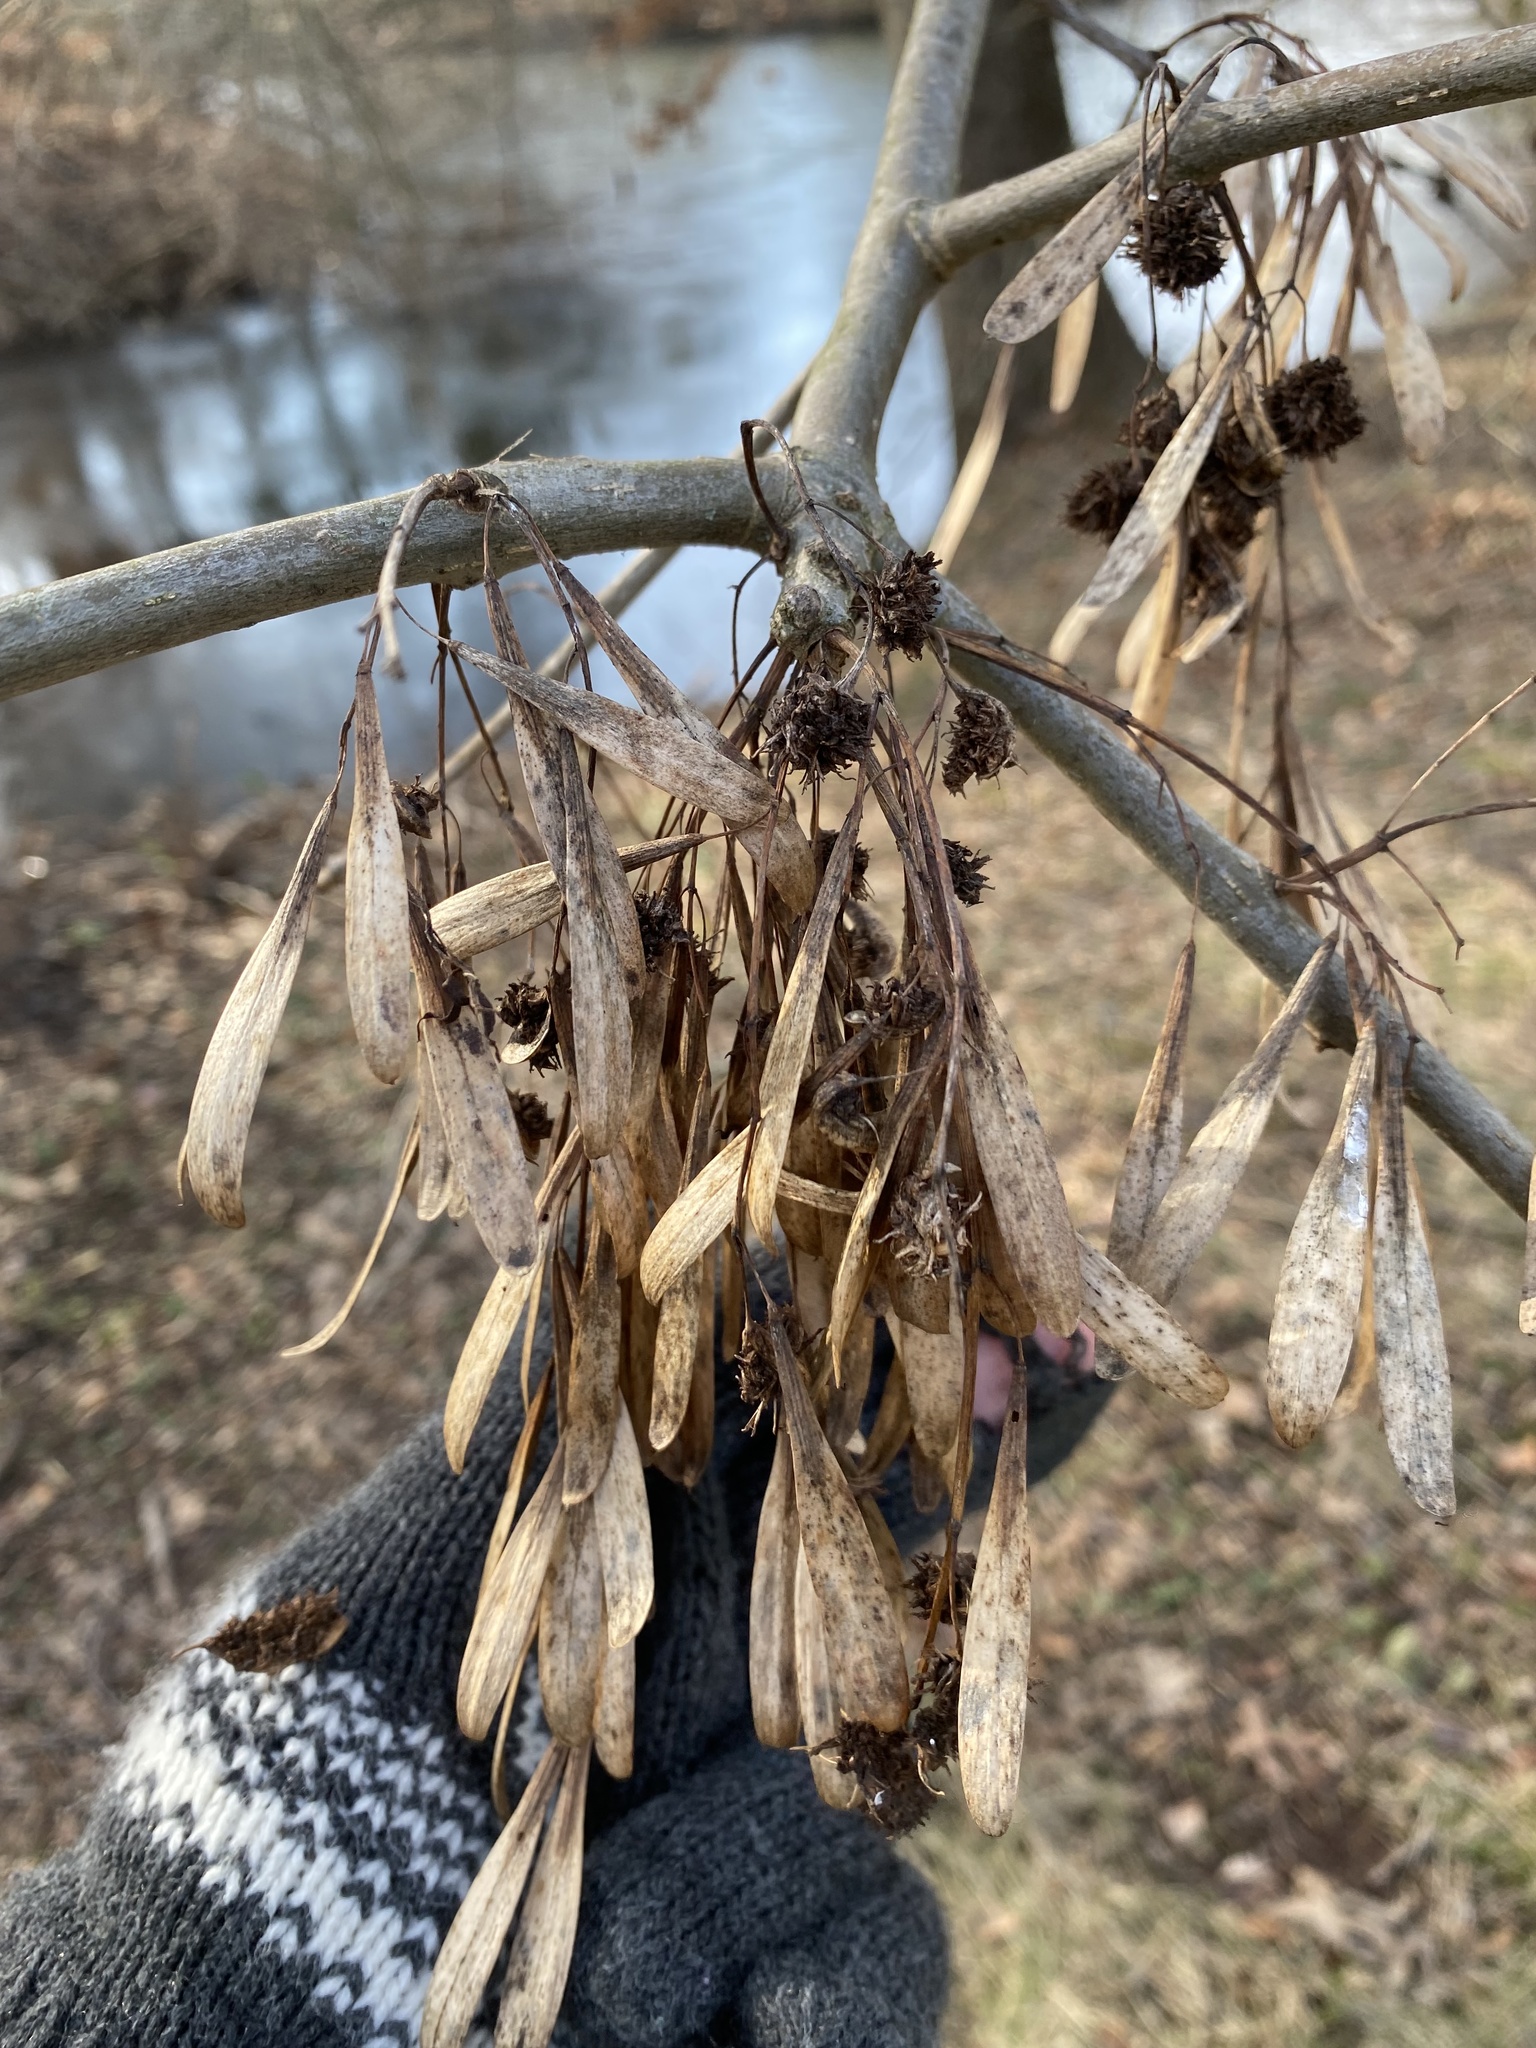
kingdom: Animalia
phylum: Arthropoda
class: Arachnida
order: Trombidiformes
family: Eriophyidae
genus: Aceria
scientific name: Aceria fraxiniflora
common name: Ash flower gall mite
